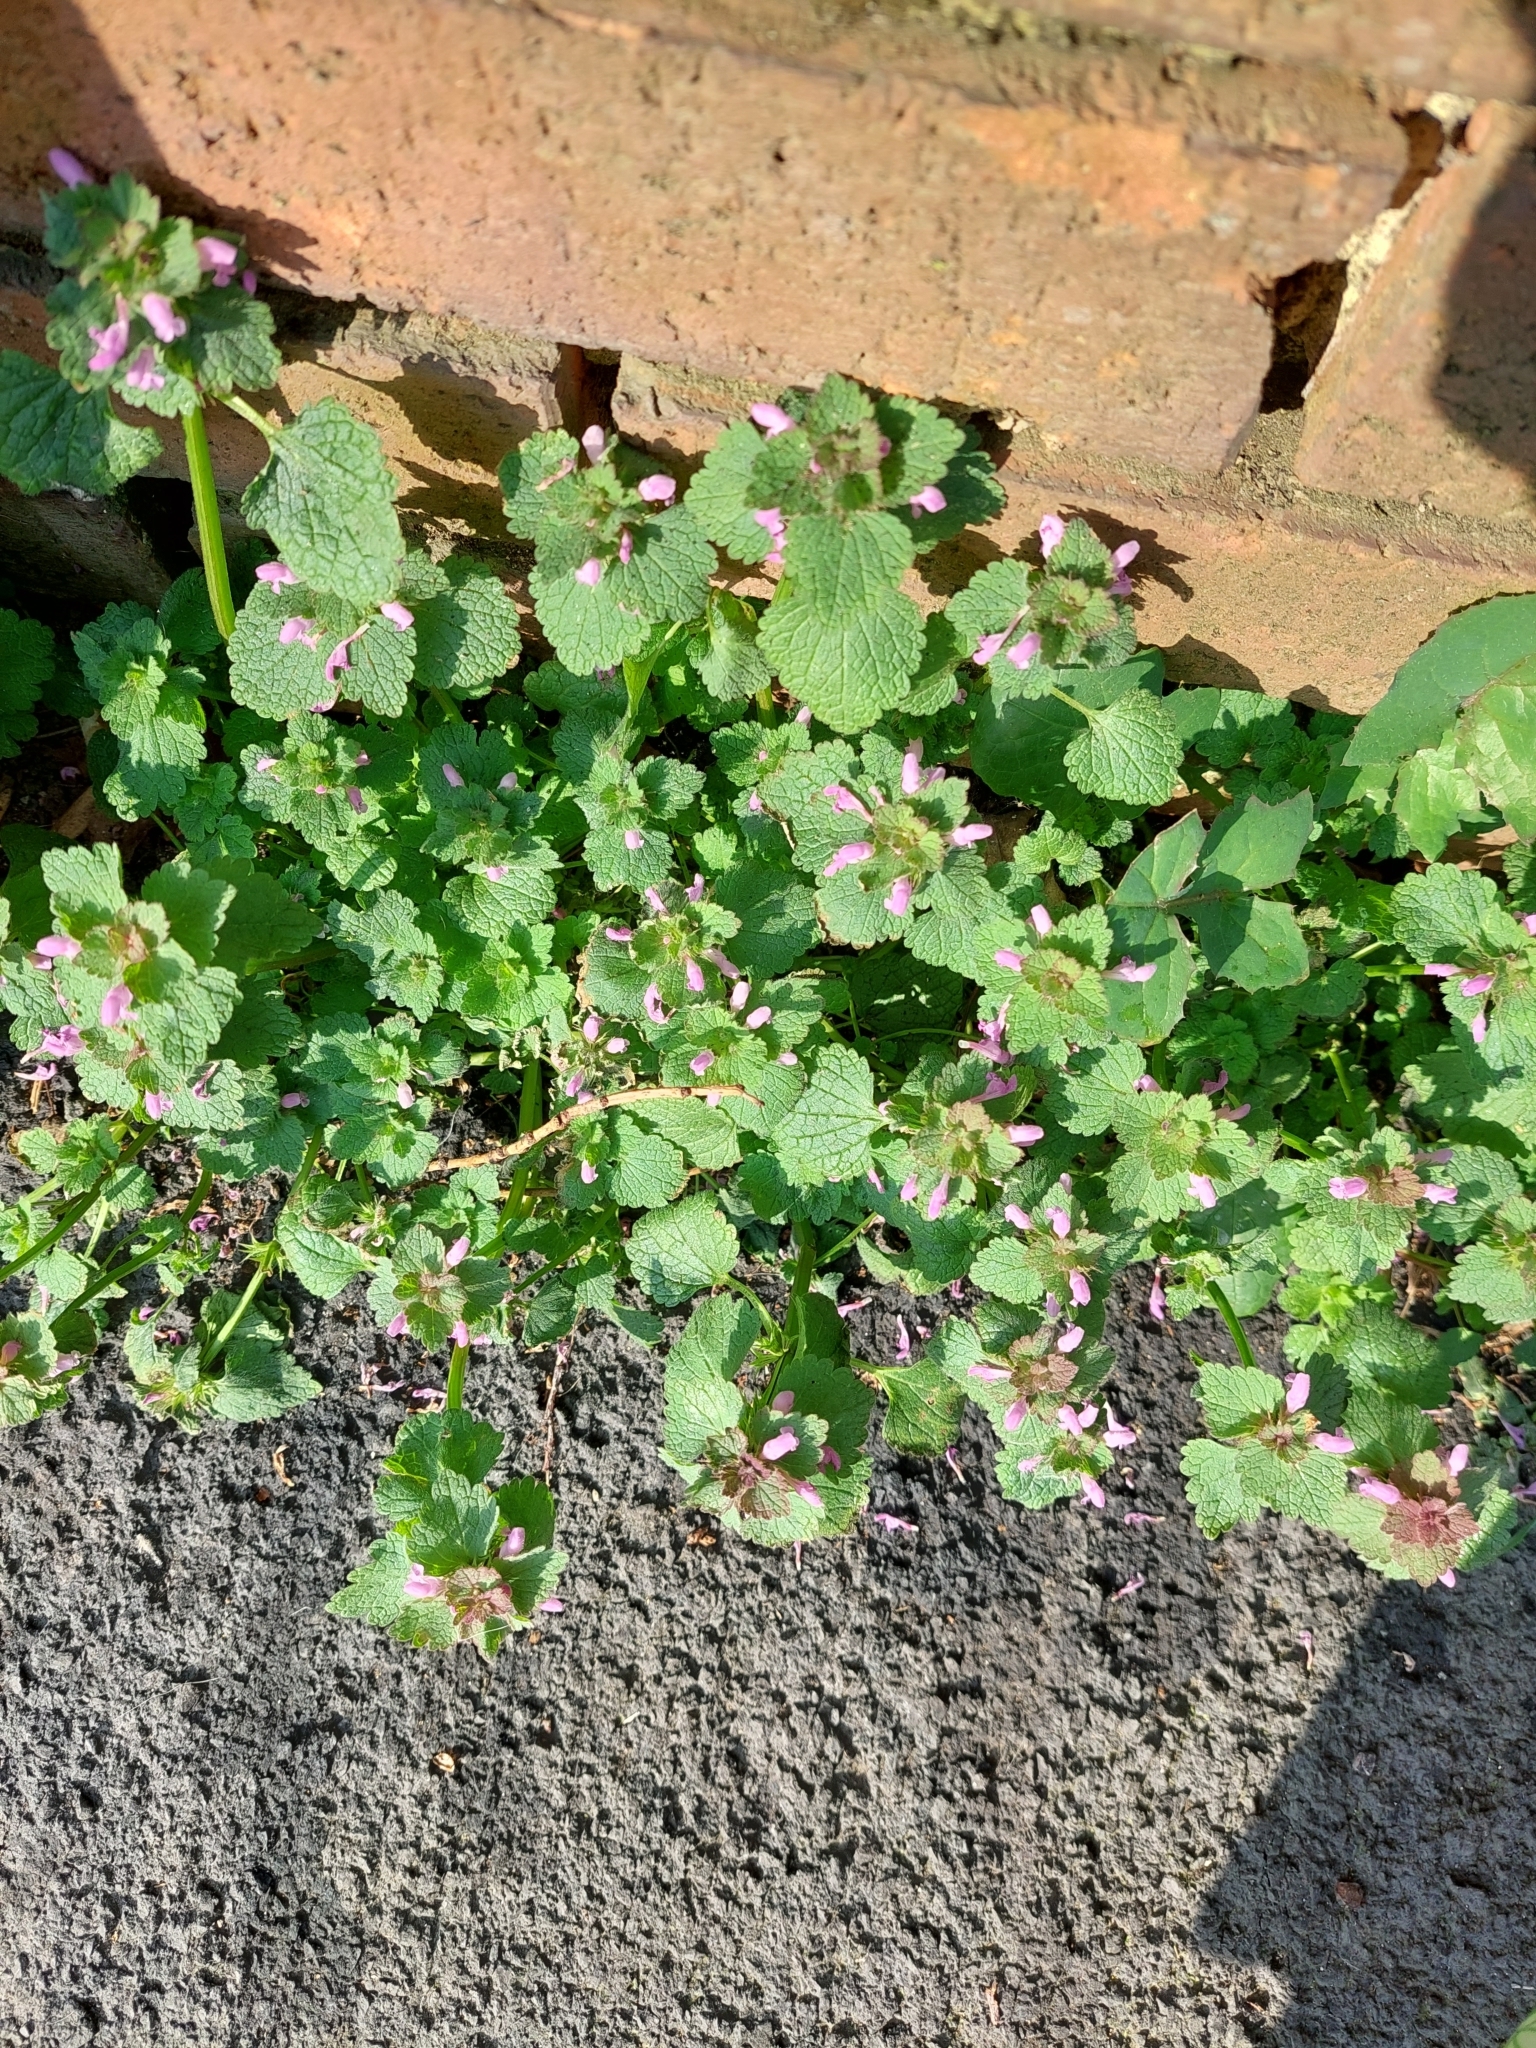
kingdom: Plantae
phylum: Tracheophyta
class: Magnoliopsida
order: Lamiales
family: Lamiaceae
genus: Lamium
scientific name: Lamium purpureum
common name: Red dead-nettle
